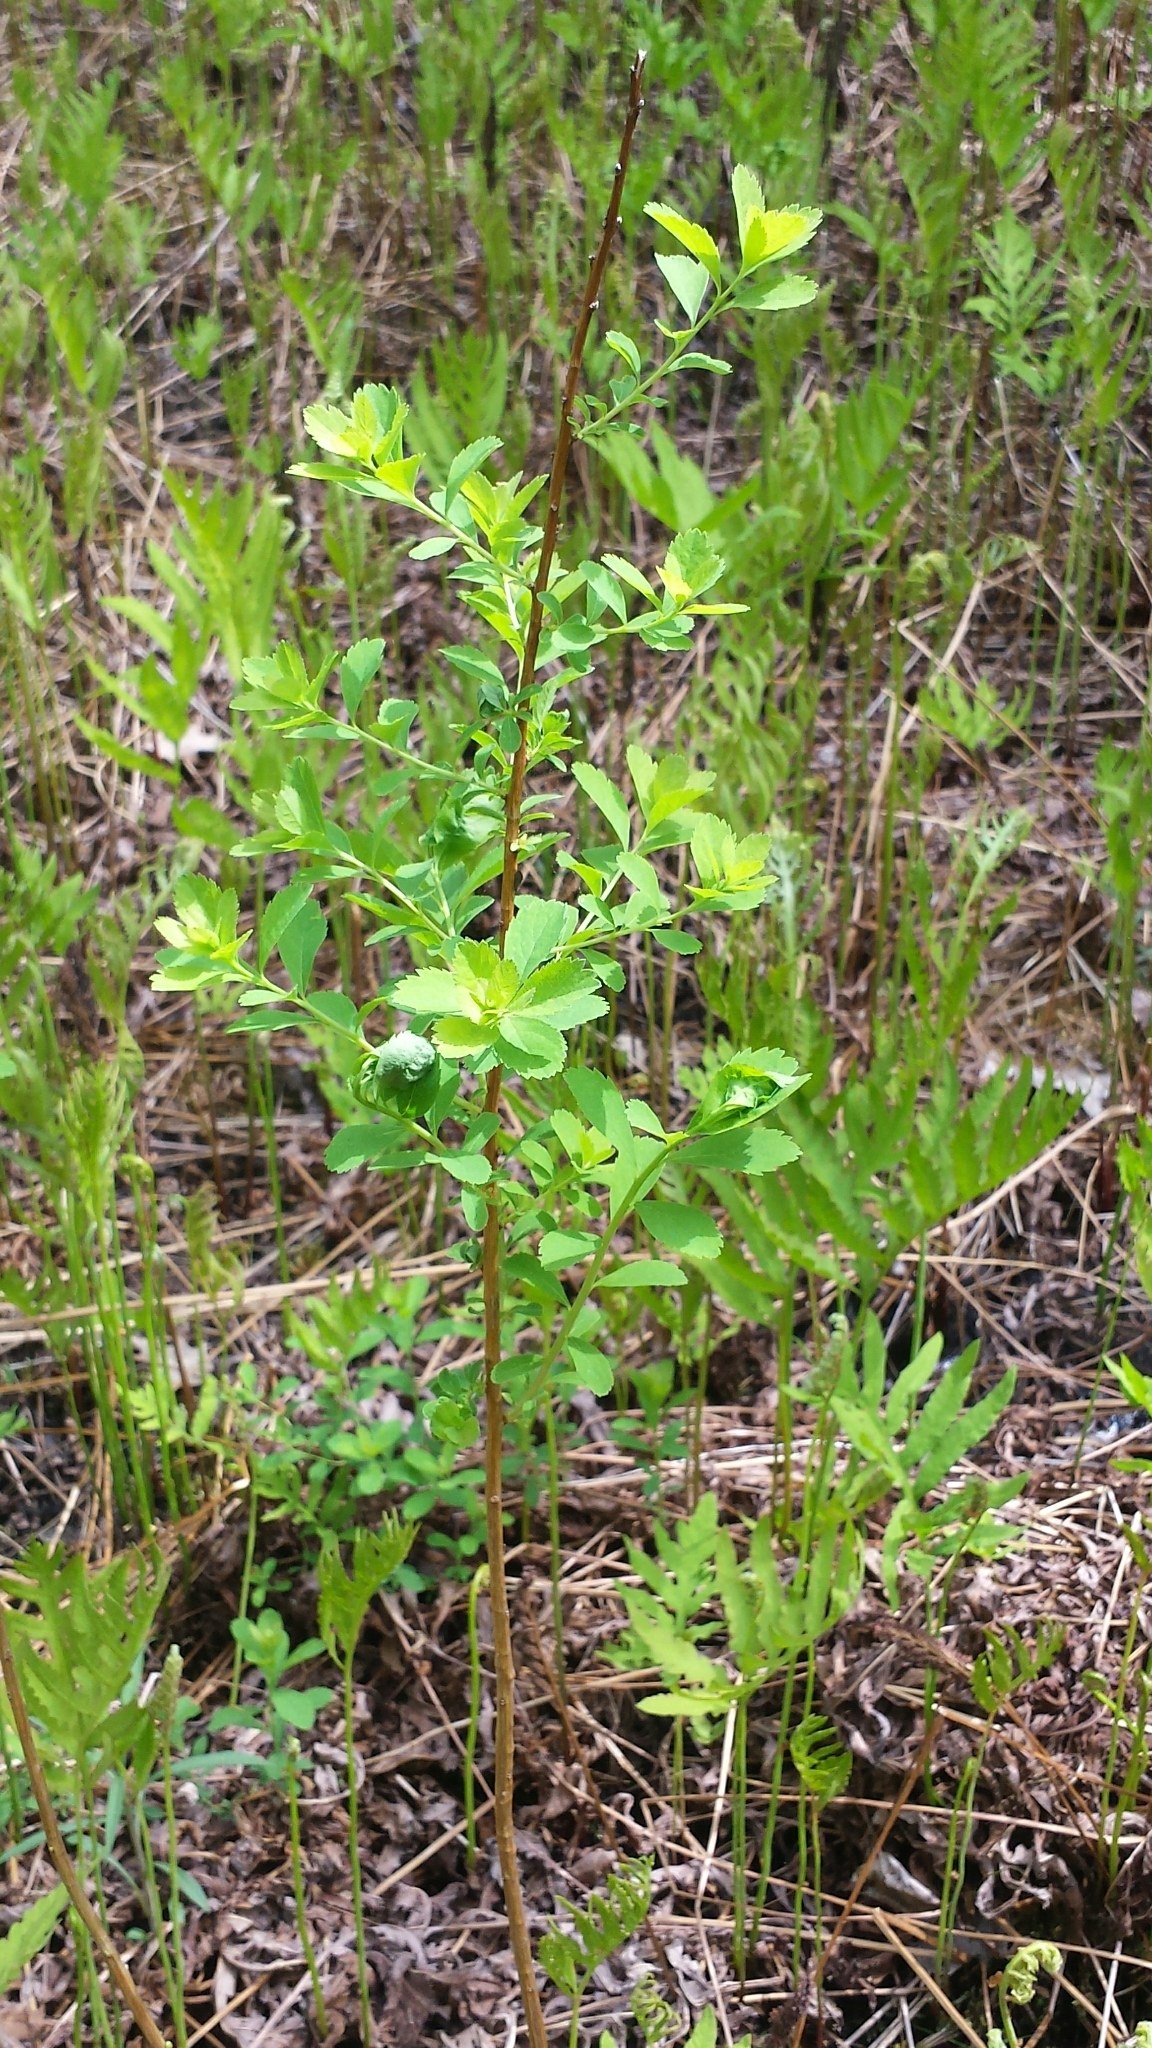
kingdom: Plantae
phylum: Tracheophyta
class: Magnoliopsida
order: Rosales
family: Rosaceae
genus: Spiraea
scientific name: Spiraea alba
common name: Pale bridewort
